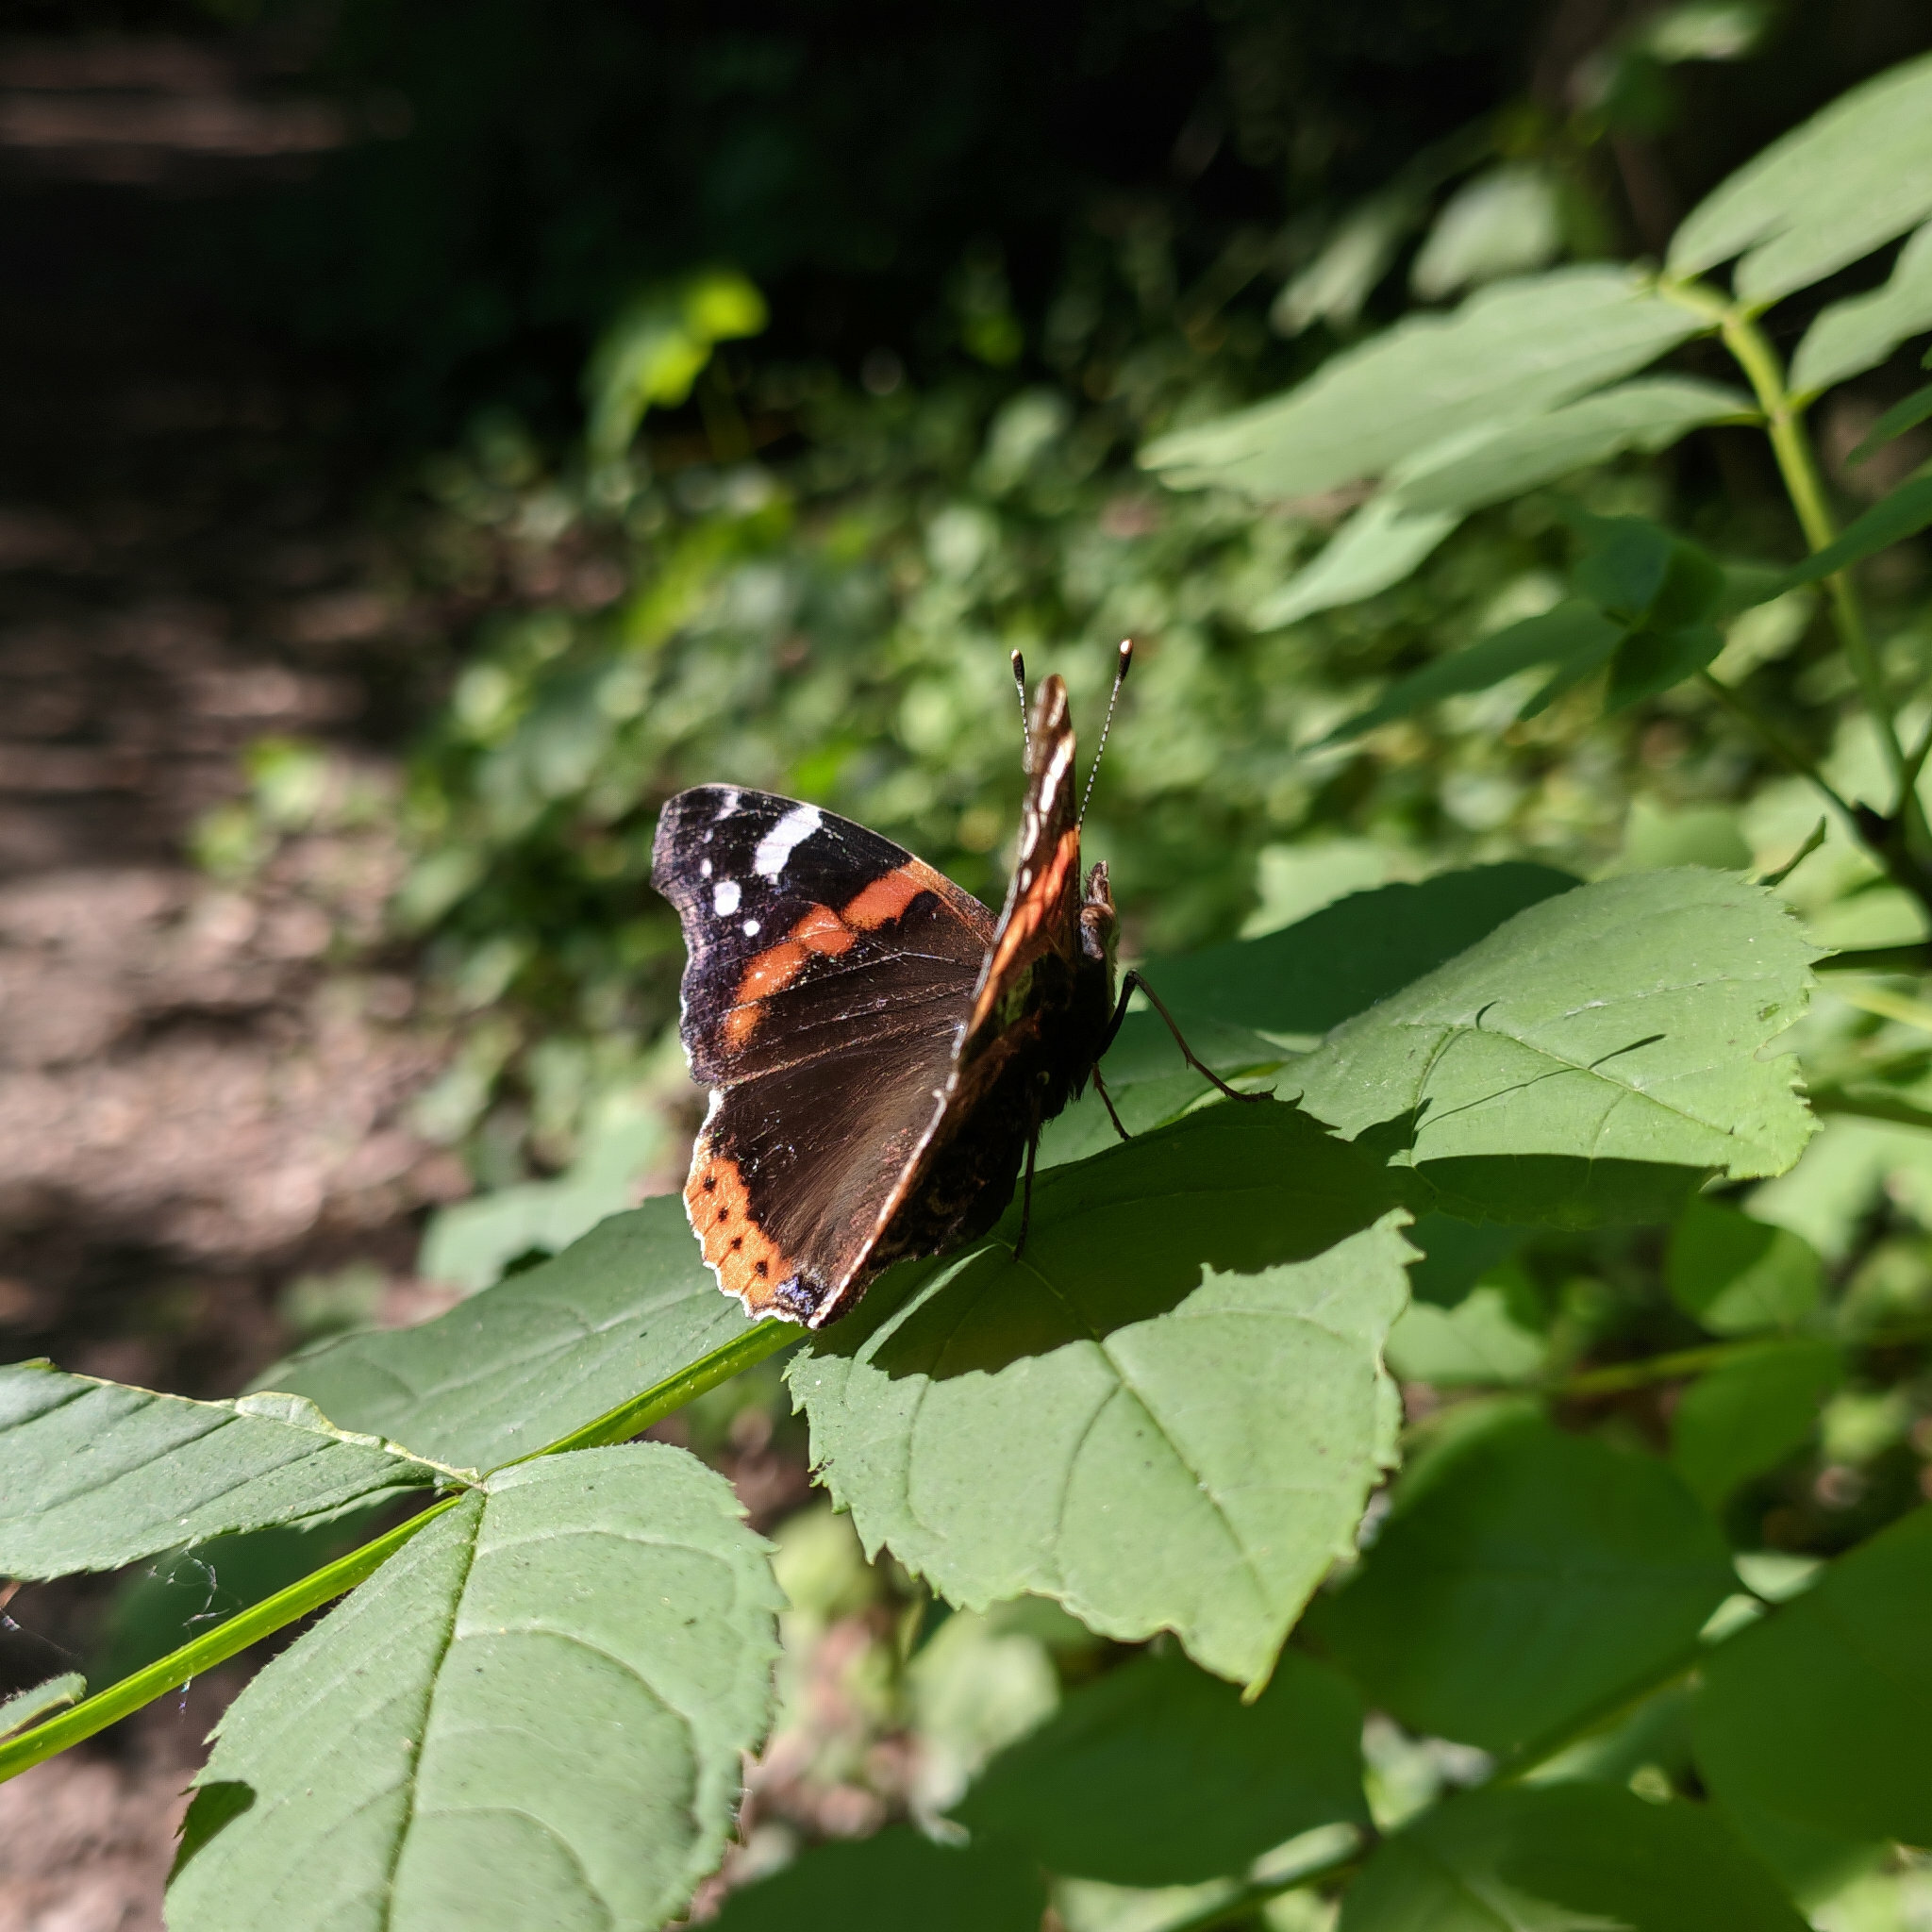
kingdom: Animalia
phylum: Arthropoda
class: Insecta
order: Lepidoptera
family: Nymphalidae
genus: Vanessa
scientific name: Vanessa atalanta
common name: Red admiral
